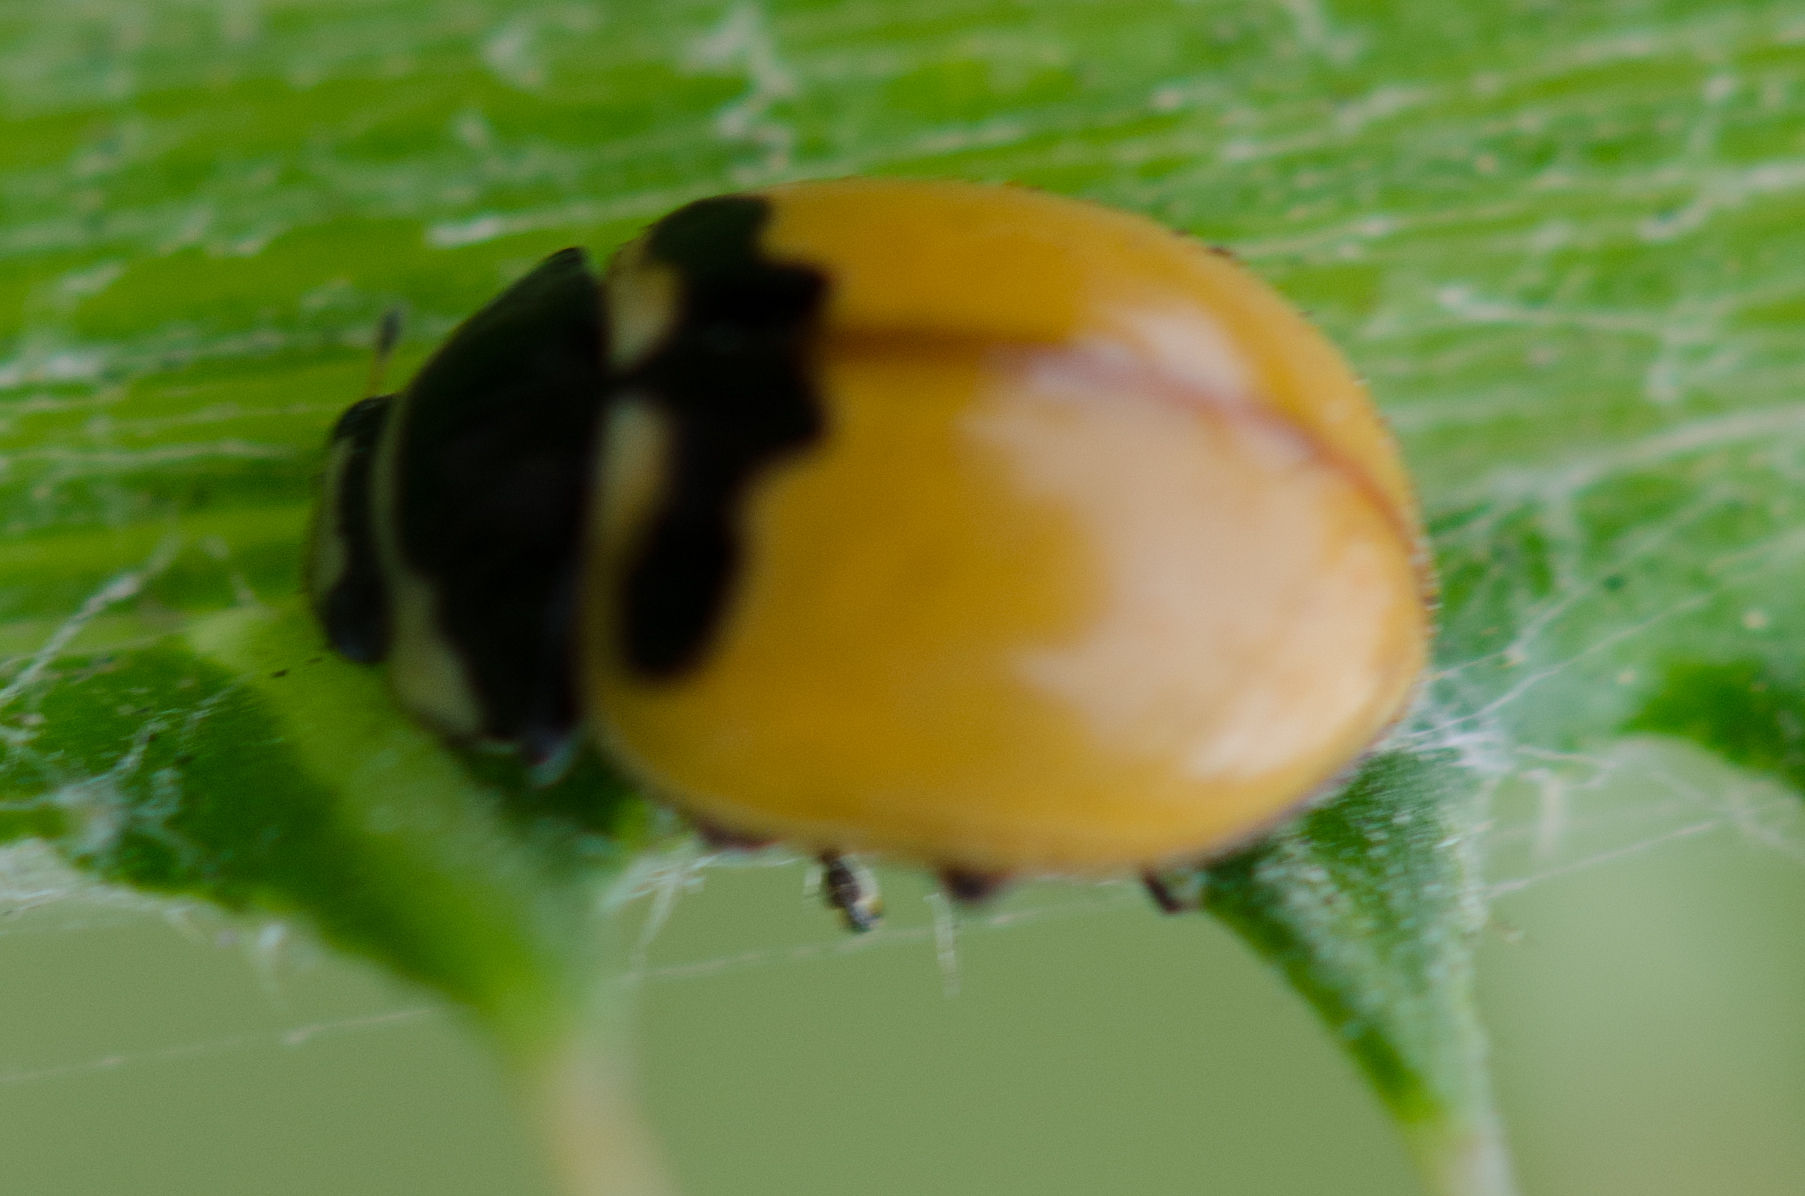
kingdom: Animalia
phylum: Arthropoda
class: Insecta
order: Coleoptera
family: Coccinellidae
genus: Coccinella
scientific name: Coccinella trifasciata
